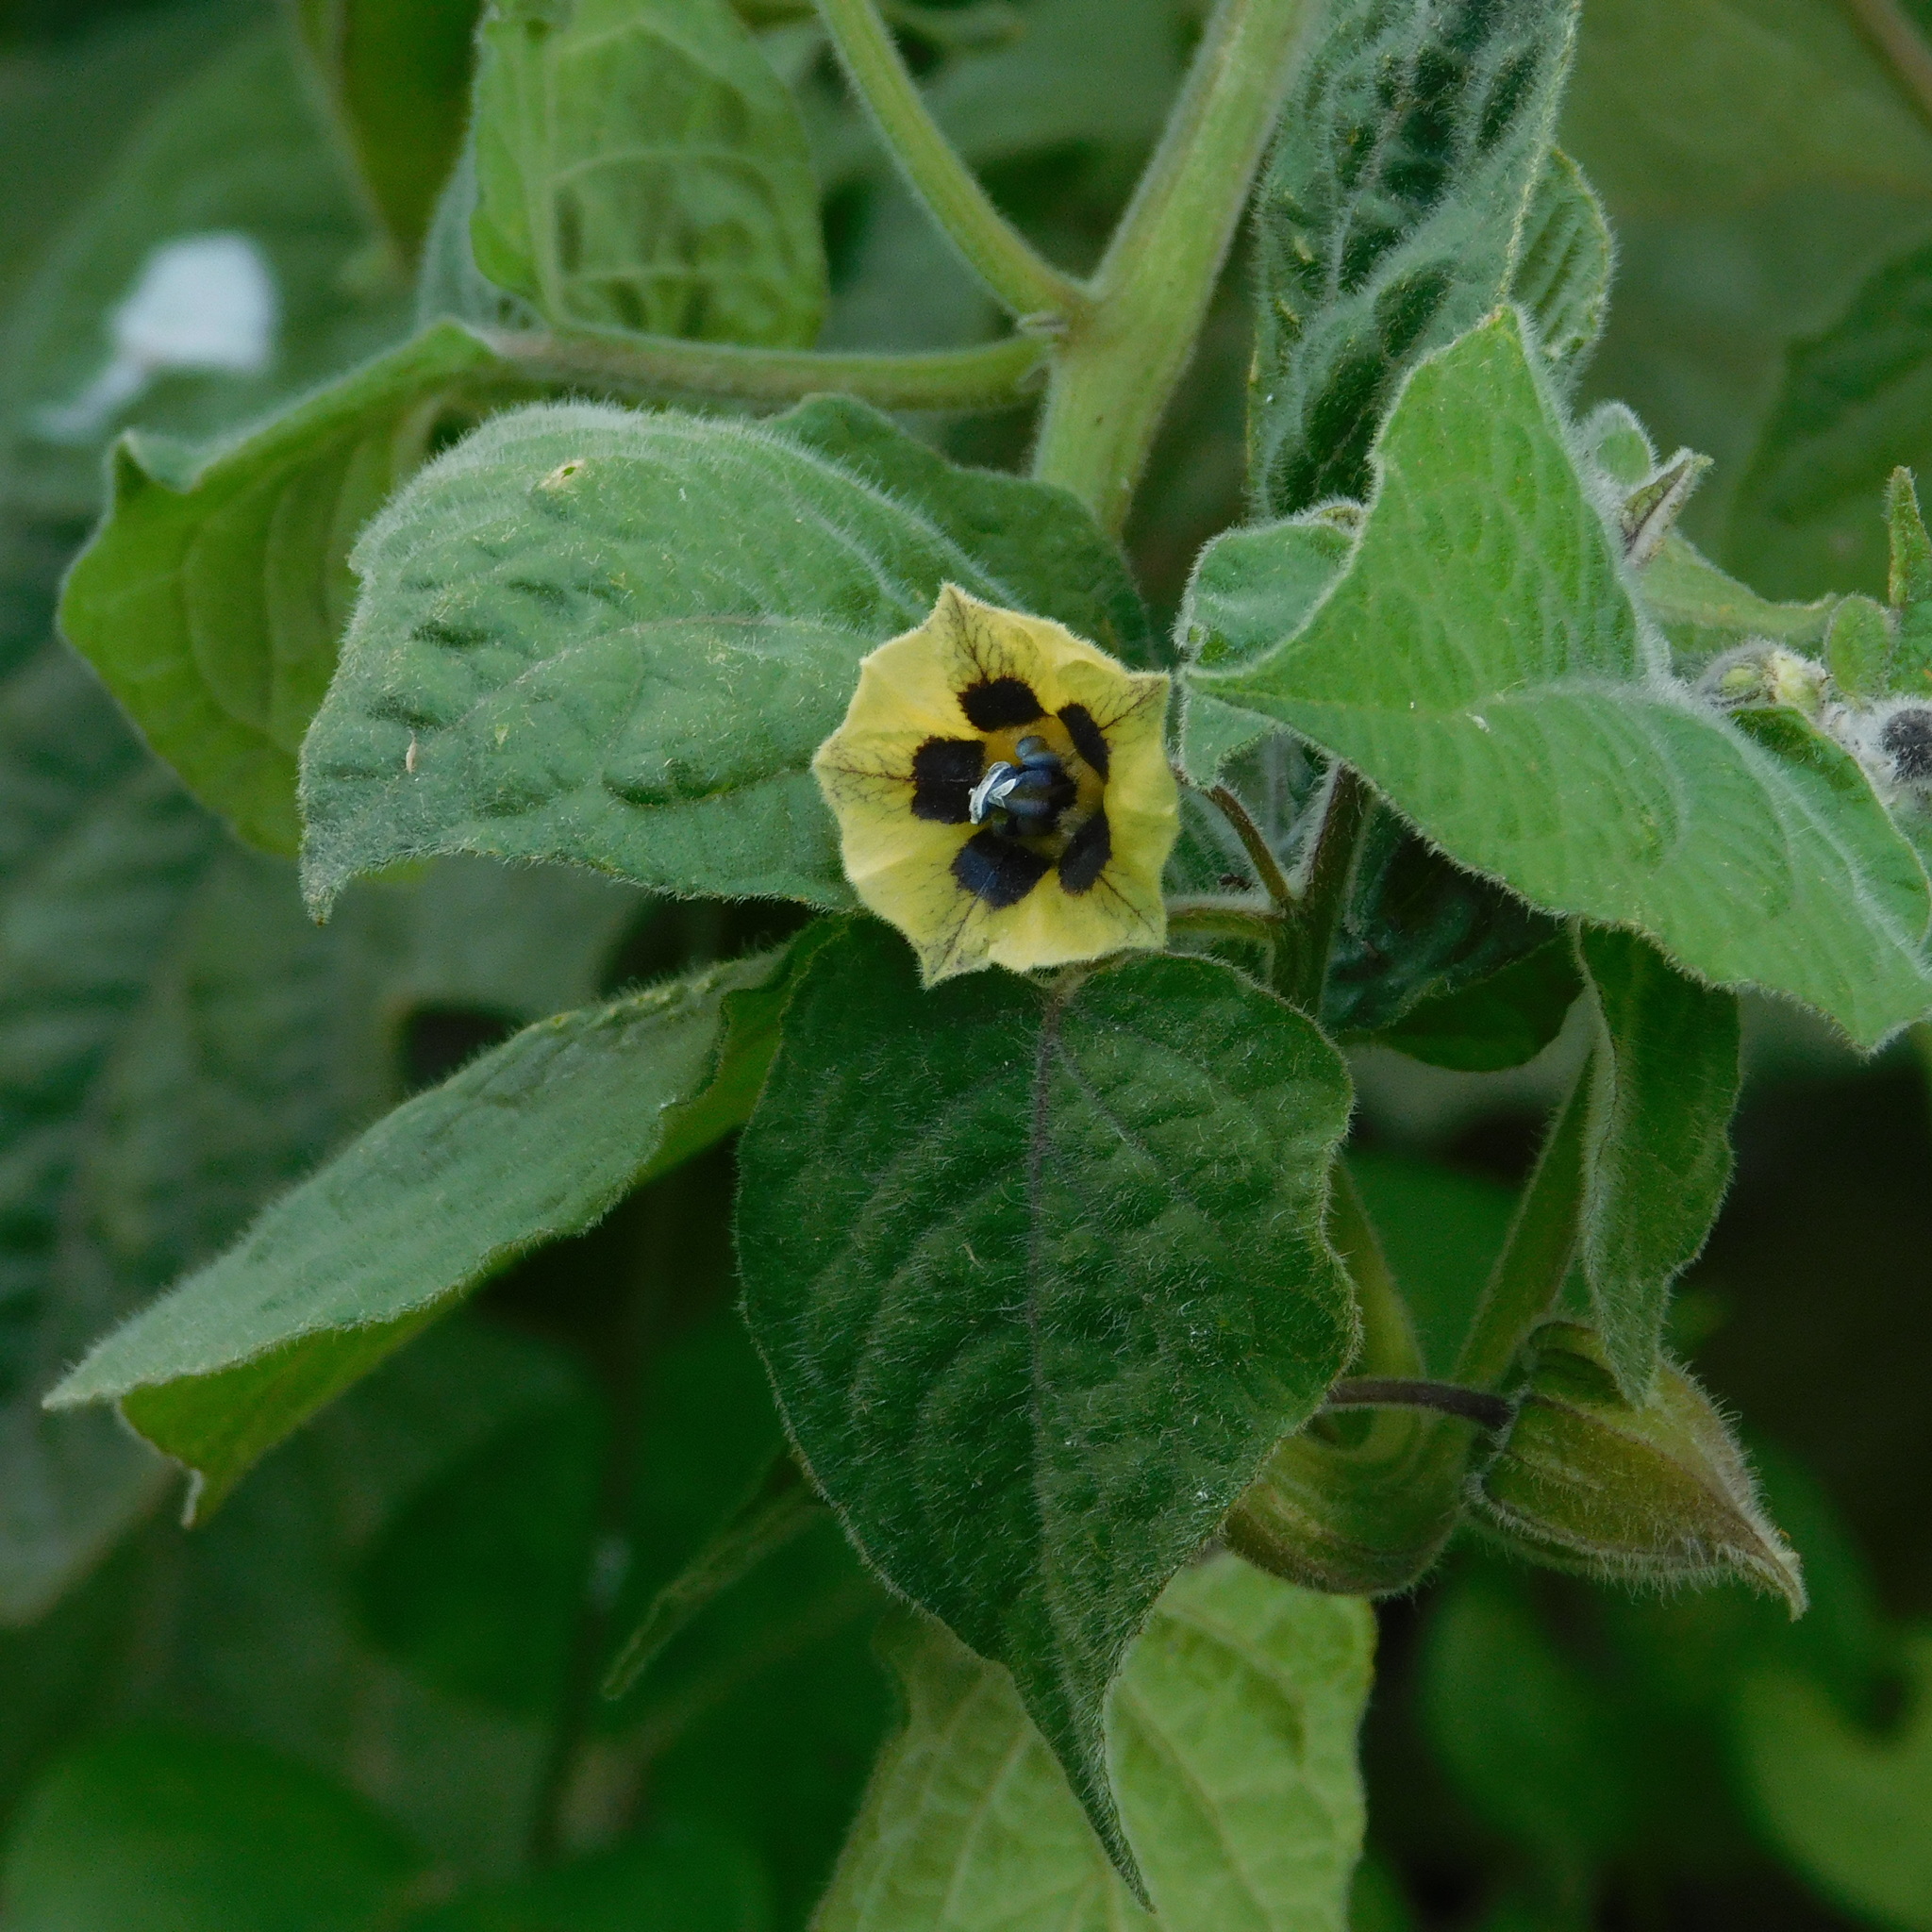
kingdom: Plantae
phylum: Tracheophyta
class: Magnoliopsida
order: Solanales
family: Solanaceae
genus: Physalis
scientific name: Physalis peruviana
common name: Cape-gooseberry
